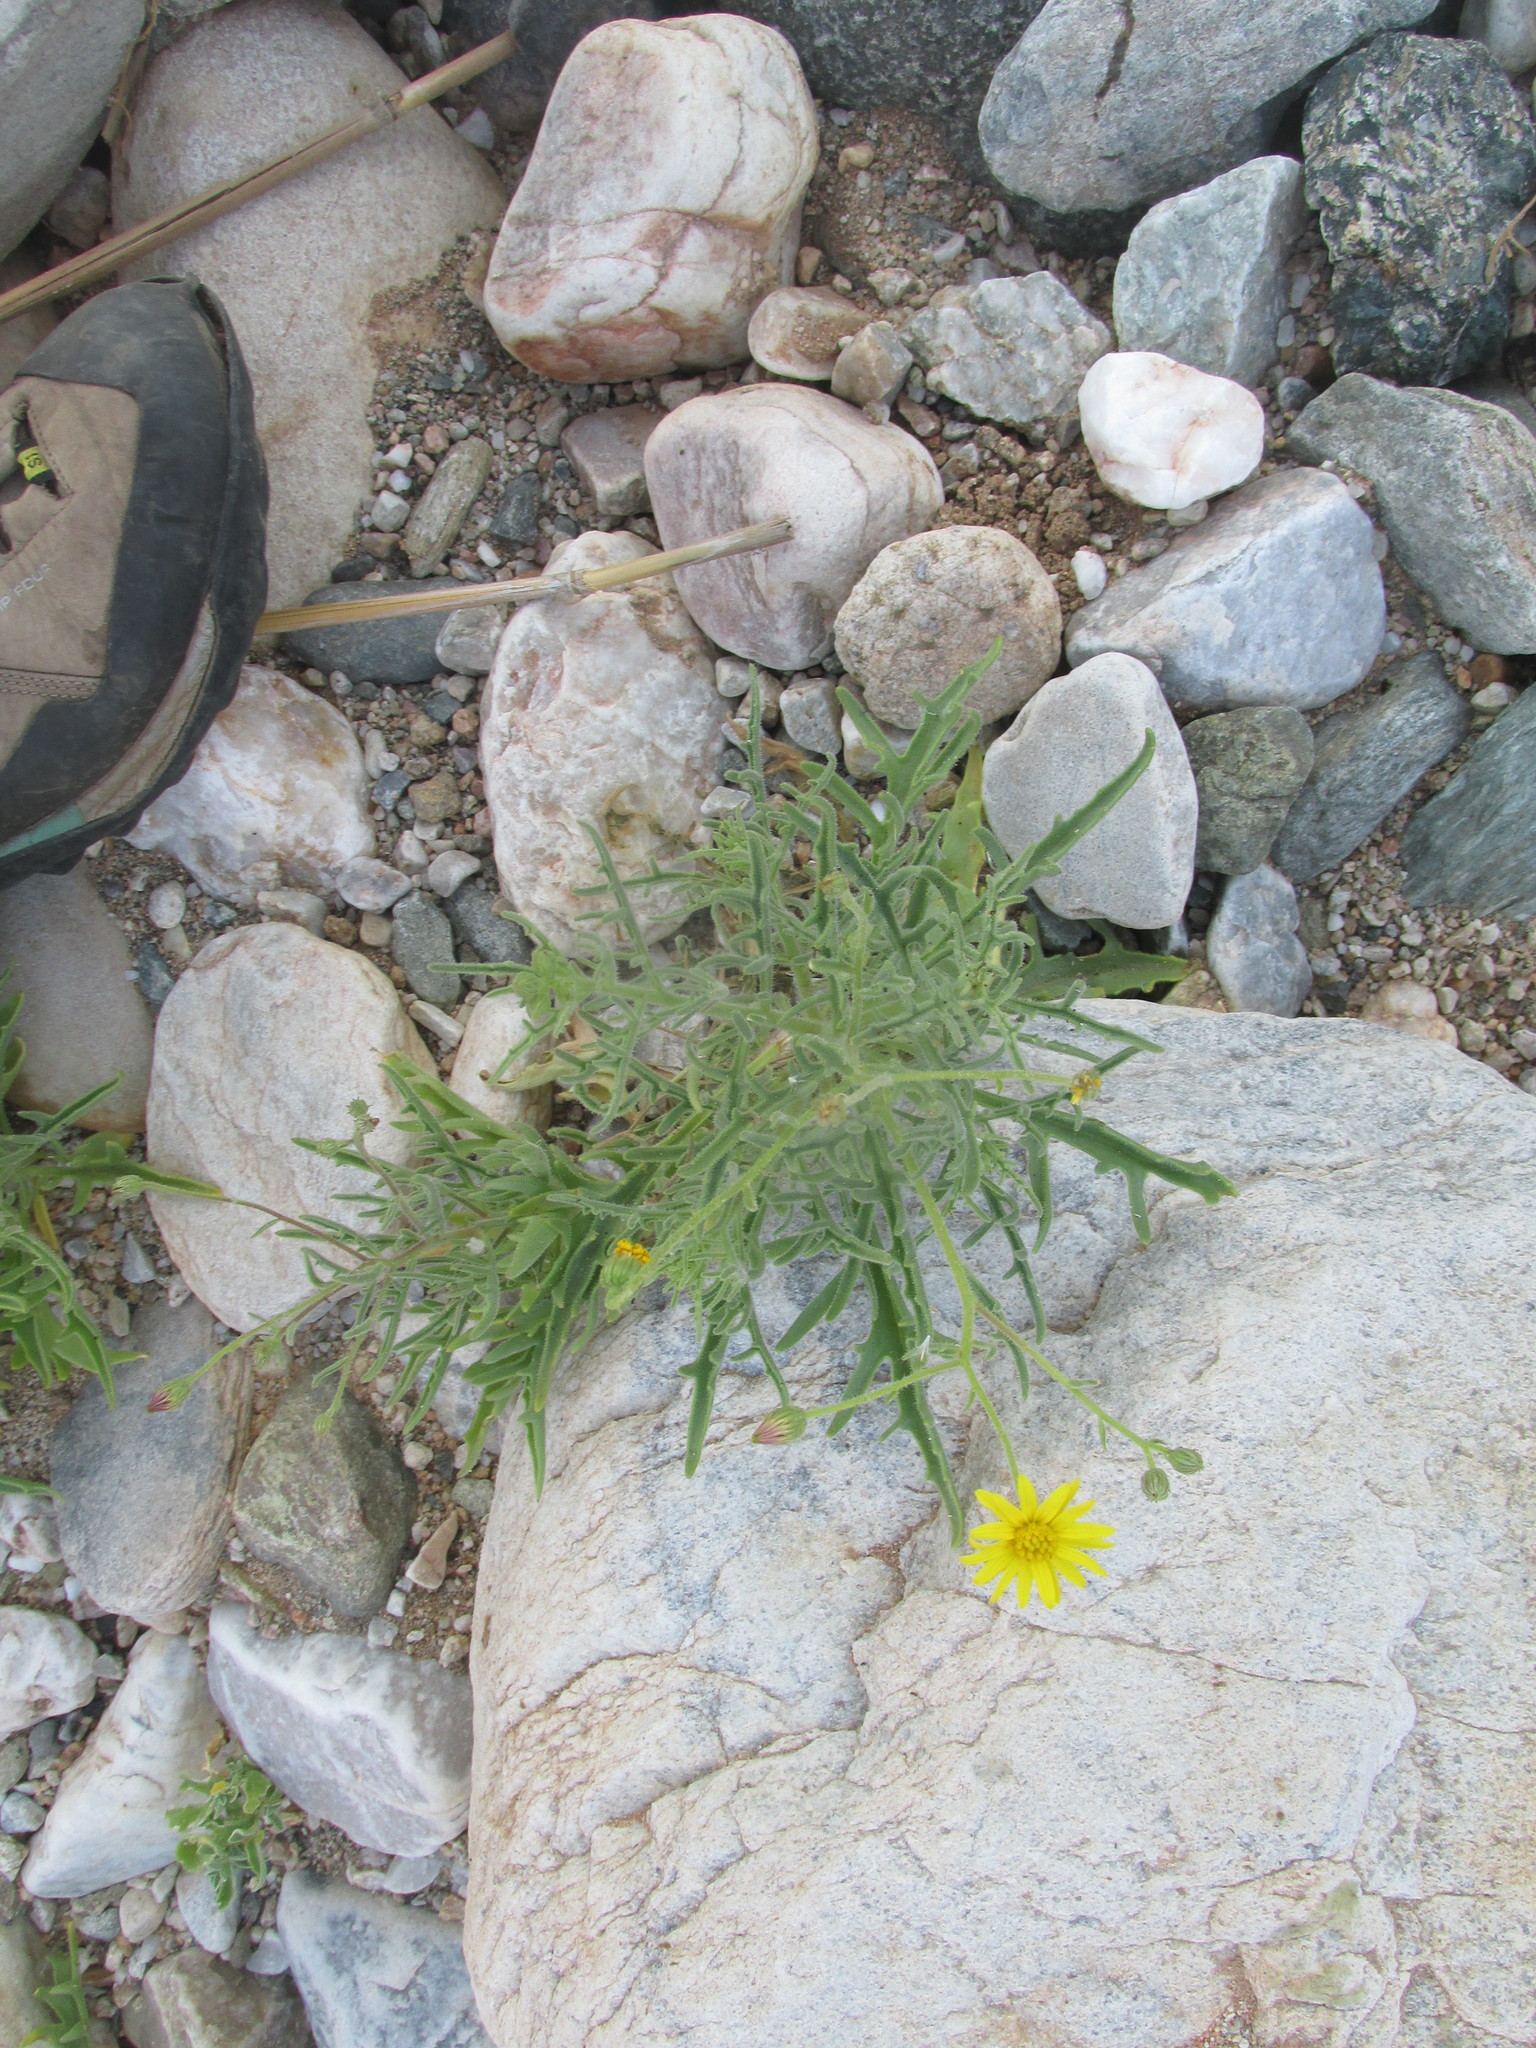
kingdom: Plantae
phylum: Tracheophyta
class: Magnoliopsida
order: Asterales
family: Asteraceae
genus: Osteospermum
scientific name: Osteospermum microcarpum
